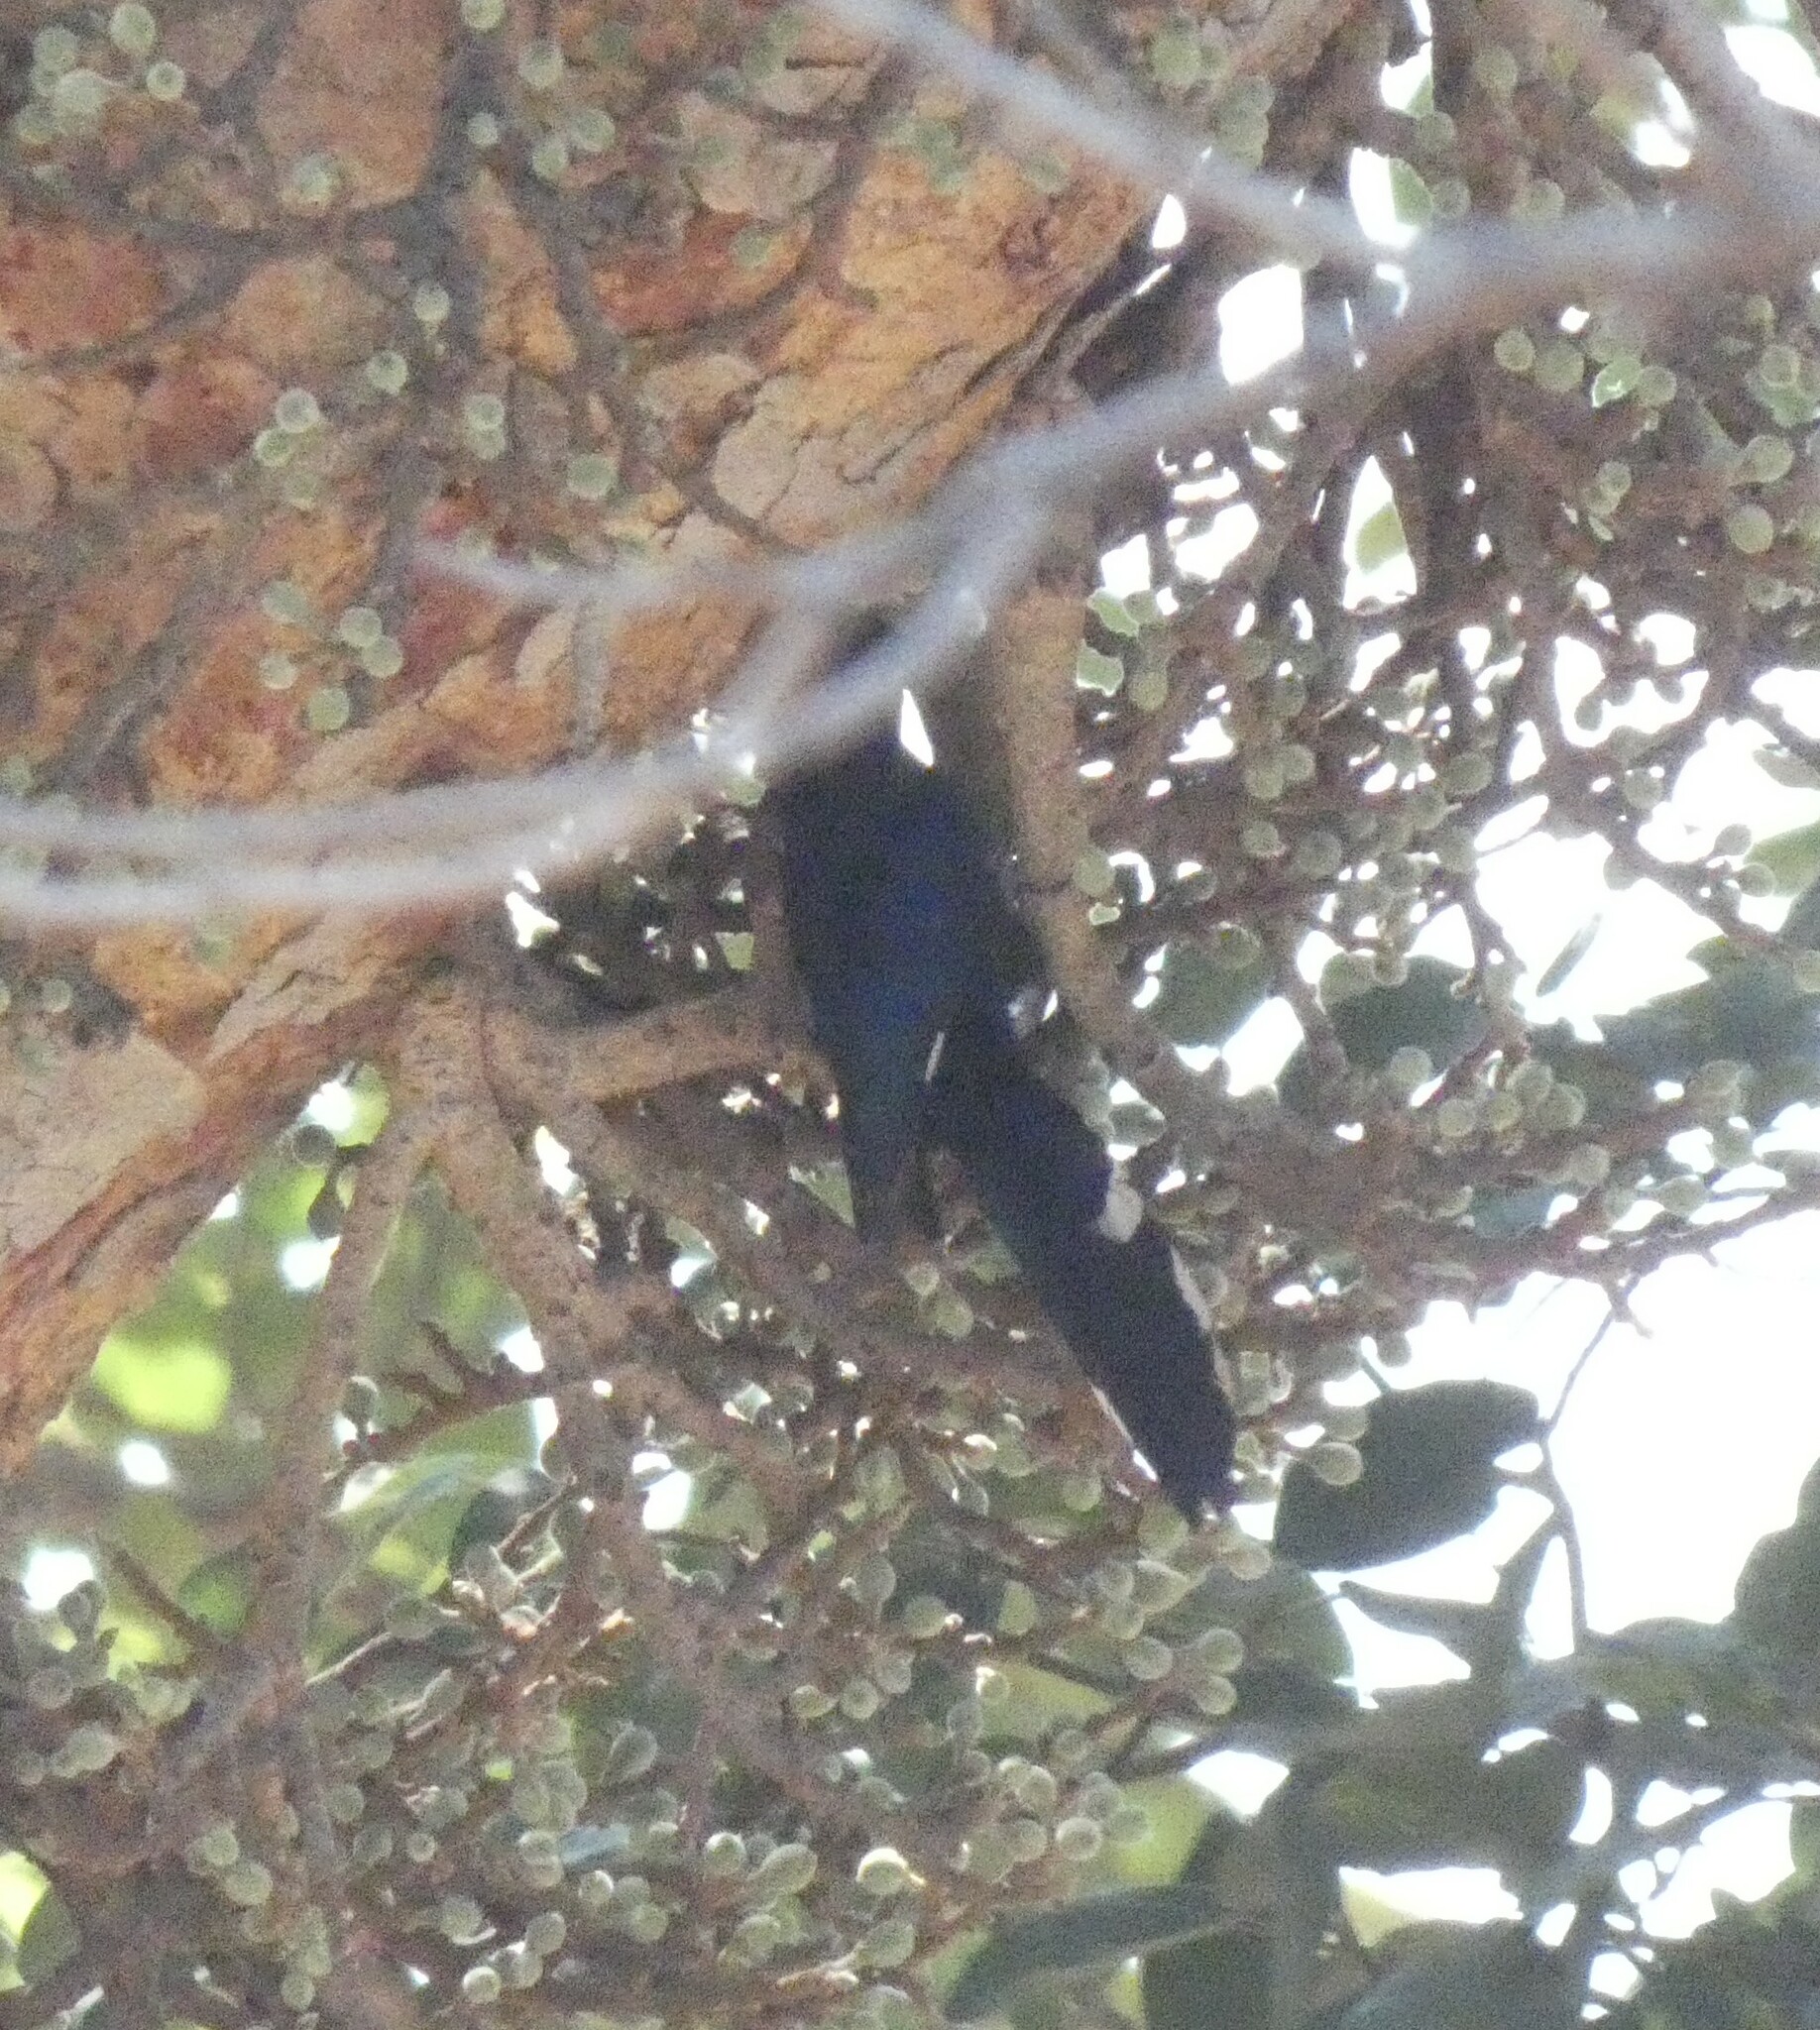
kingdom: Animalia
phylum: Chordata
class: Aves
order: Bucerotiformes
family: Phoeniculidae
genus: Phoeniculus
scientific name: Phoeniculus purpureus
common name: Green woodhoopoe
